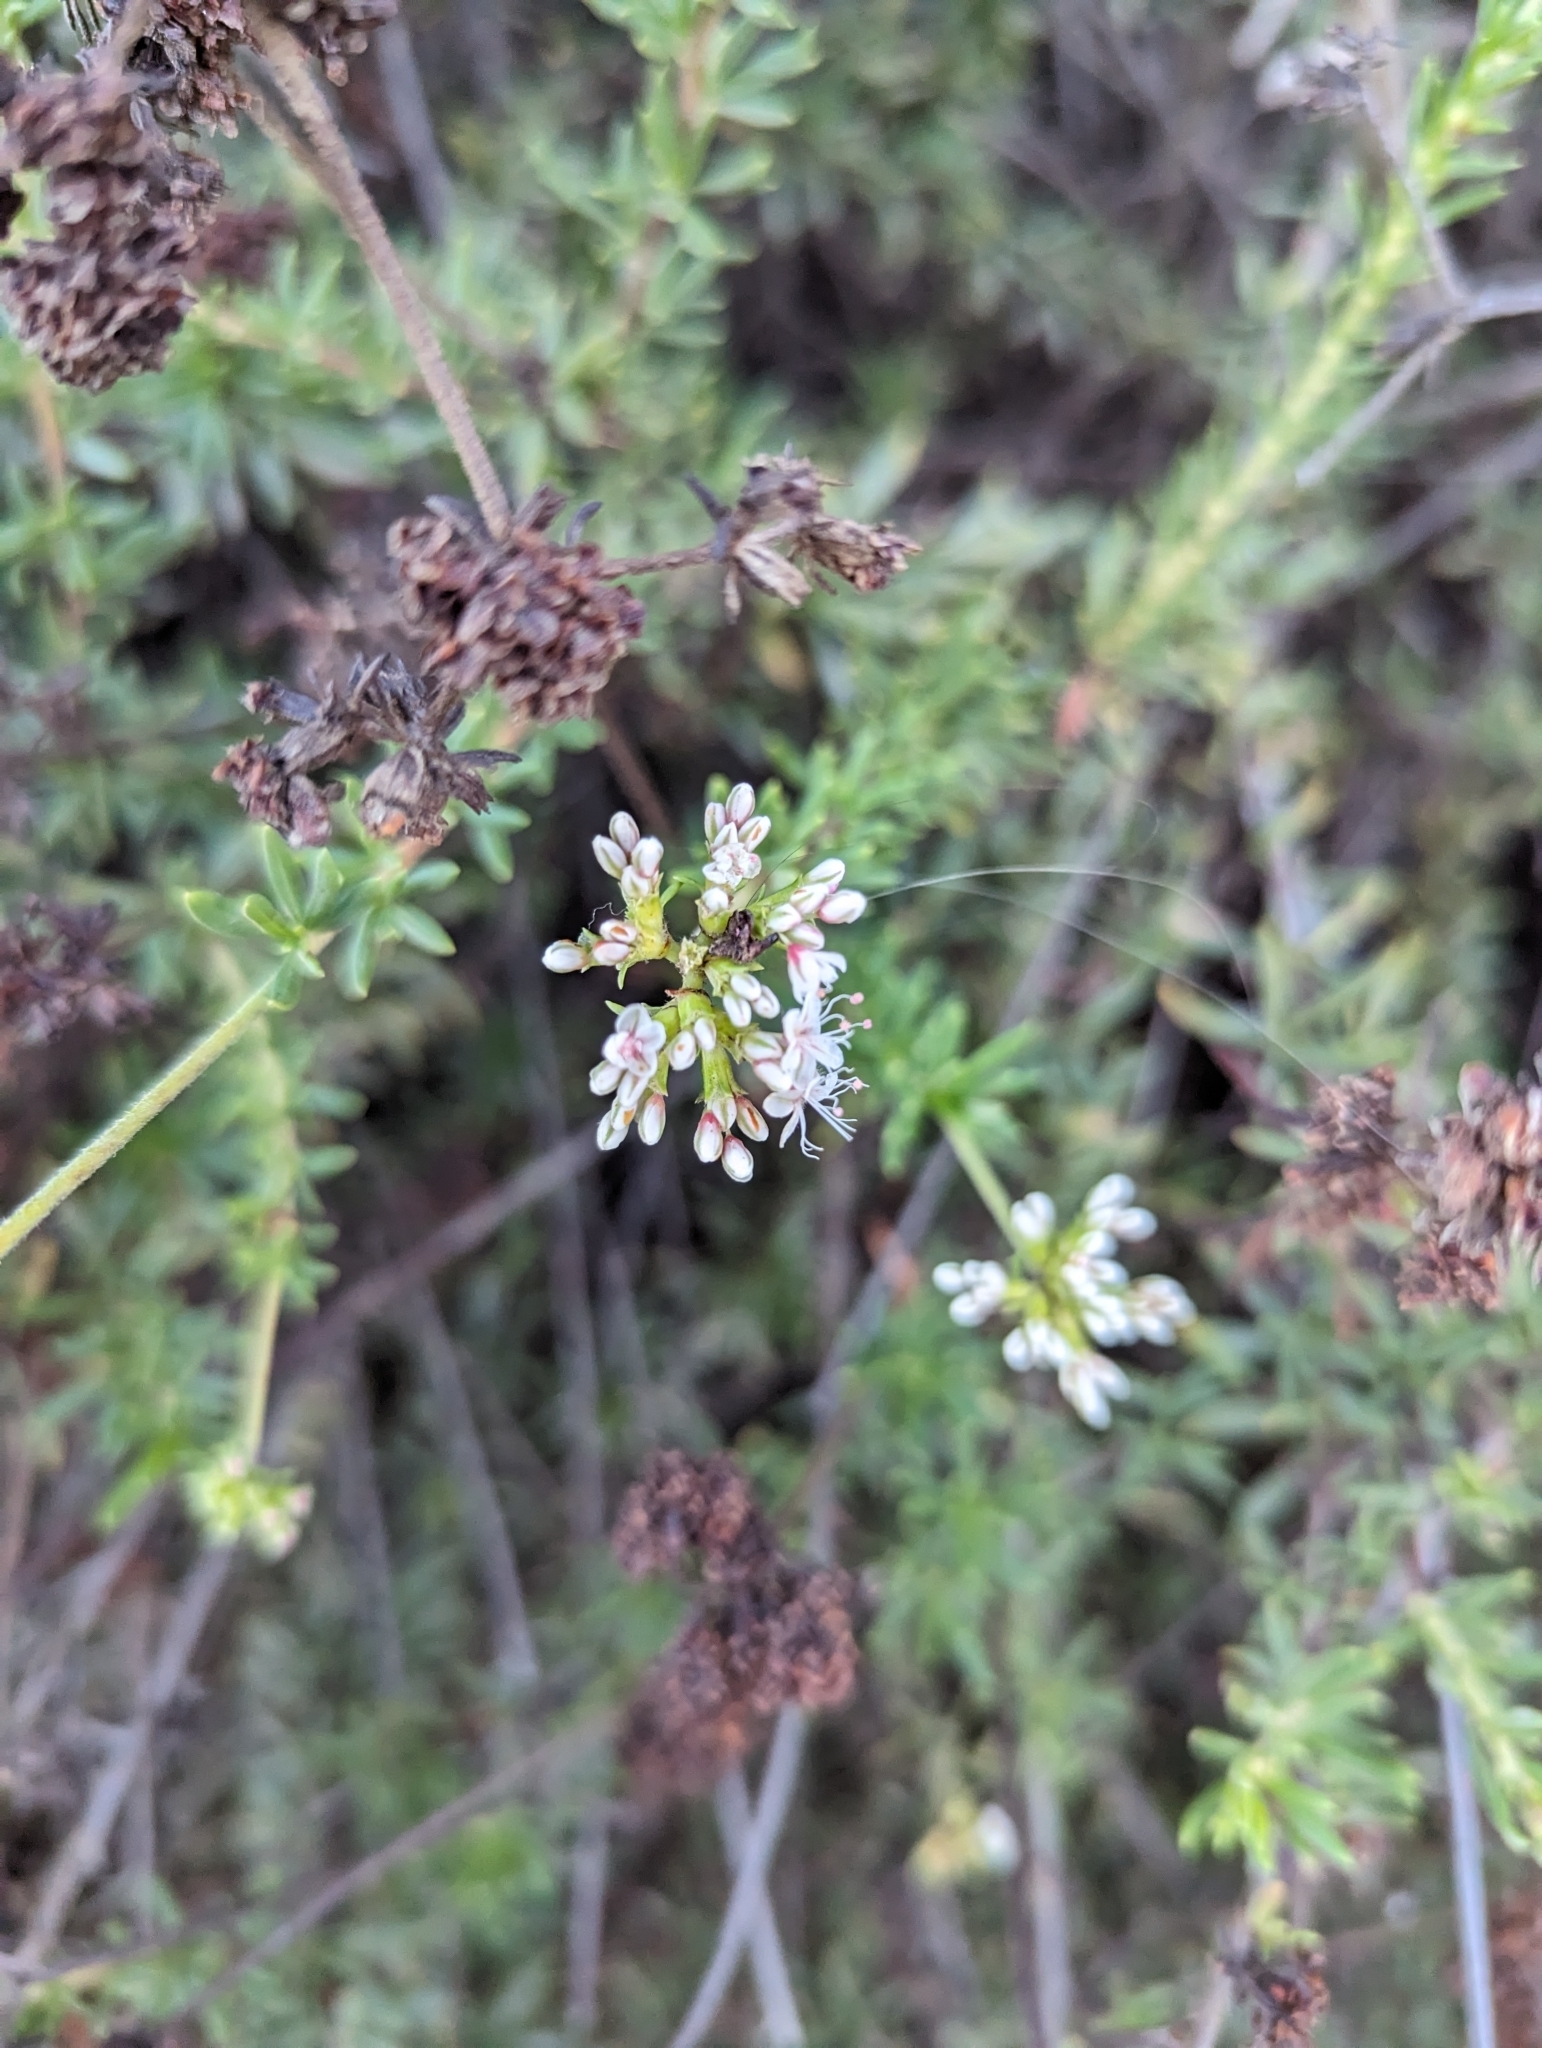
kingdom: Plantae
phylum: Tracheophyta
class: Magnoliopsida
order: Caryophyllales
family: Polygonaceae
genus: Eriogonum
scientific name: Eriogonum fasciculatum
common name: California wild buckwheat
